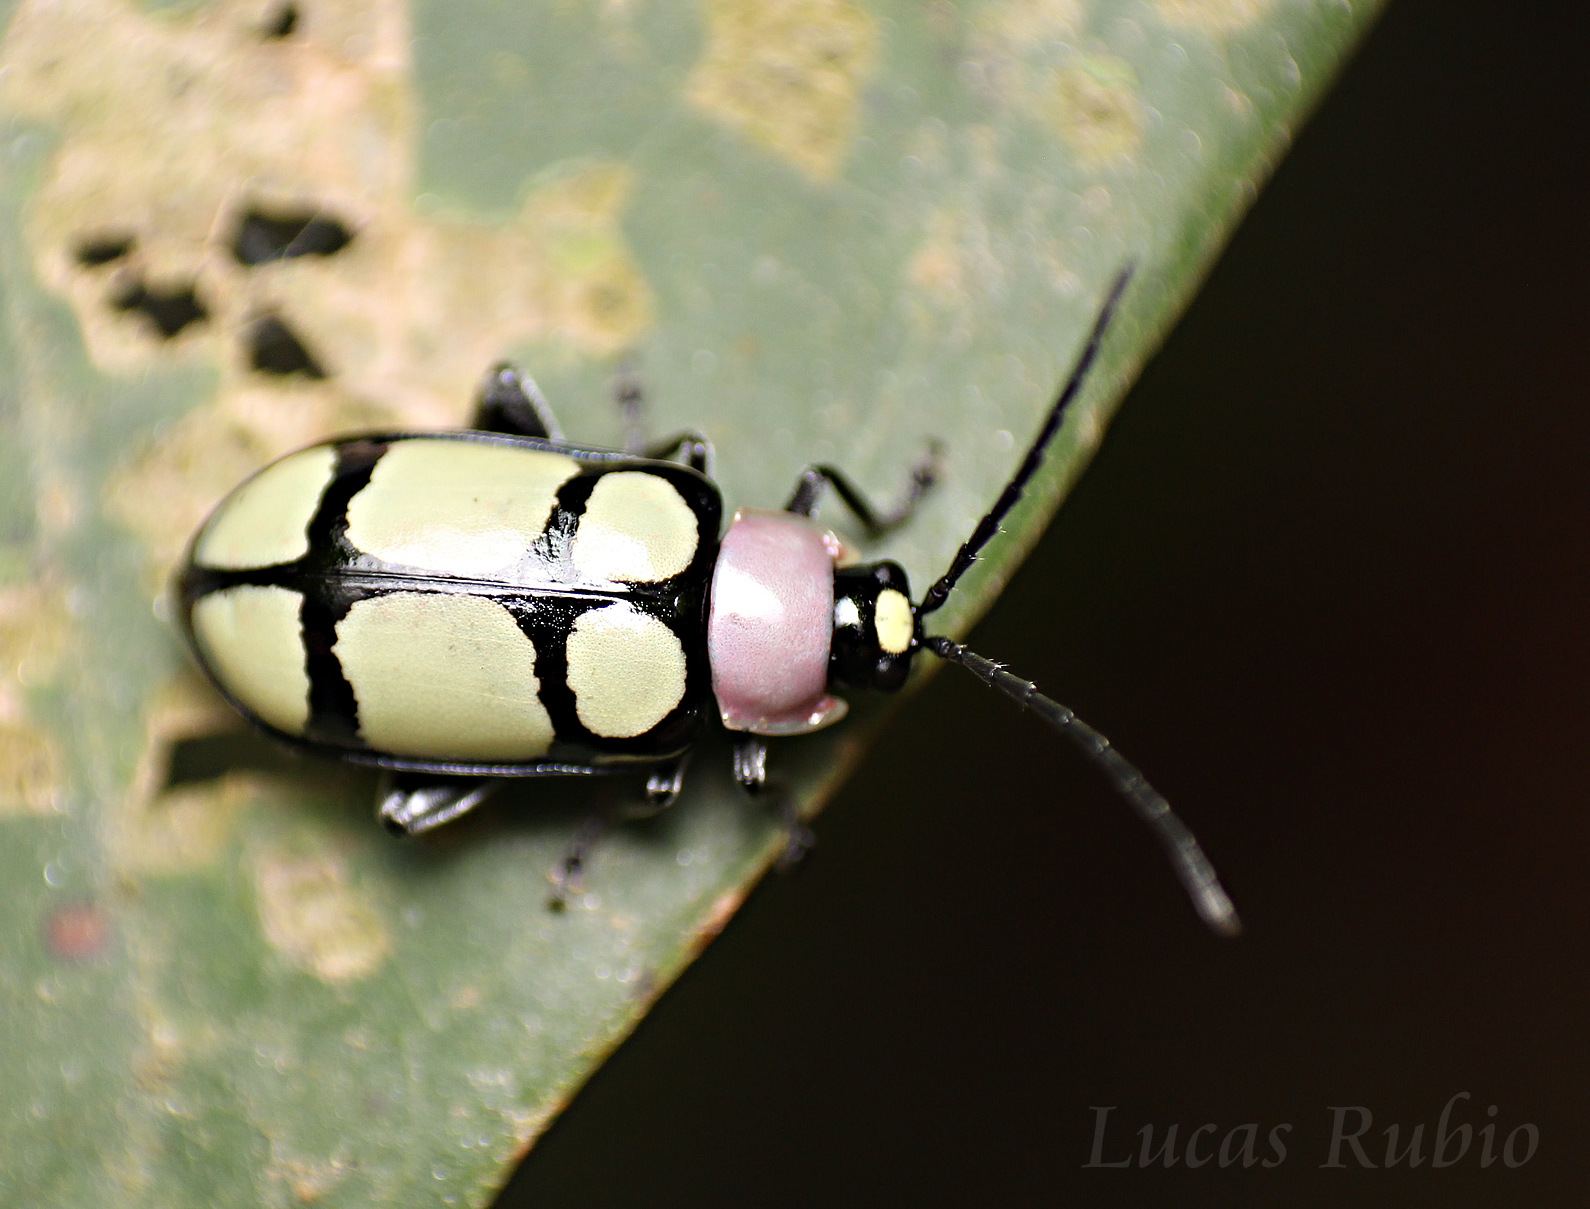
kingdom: Animalia
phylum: Arthropoda
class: Insecta
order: Coleoptera
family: Chrysomelidae
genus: Omophoita
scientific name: Omophoita
